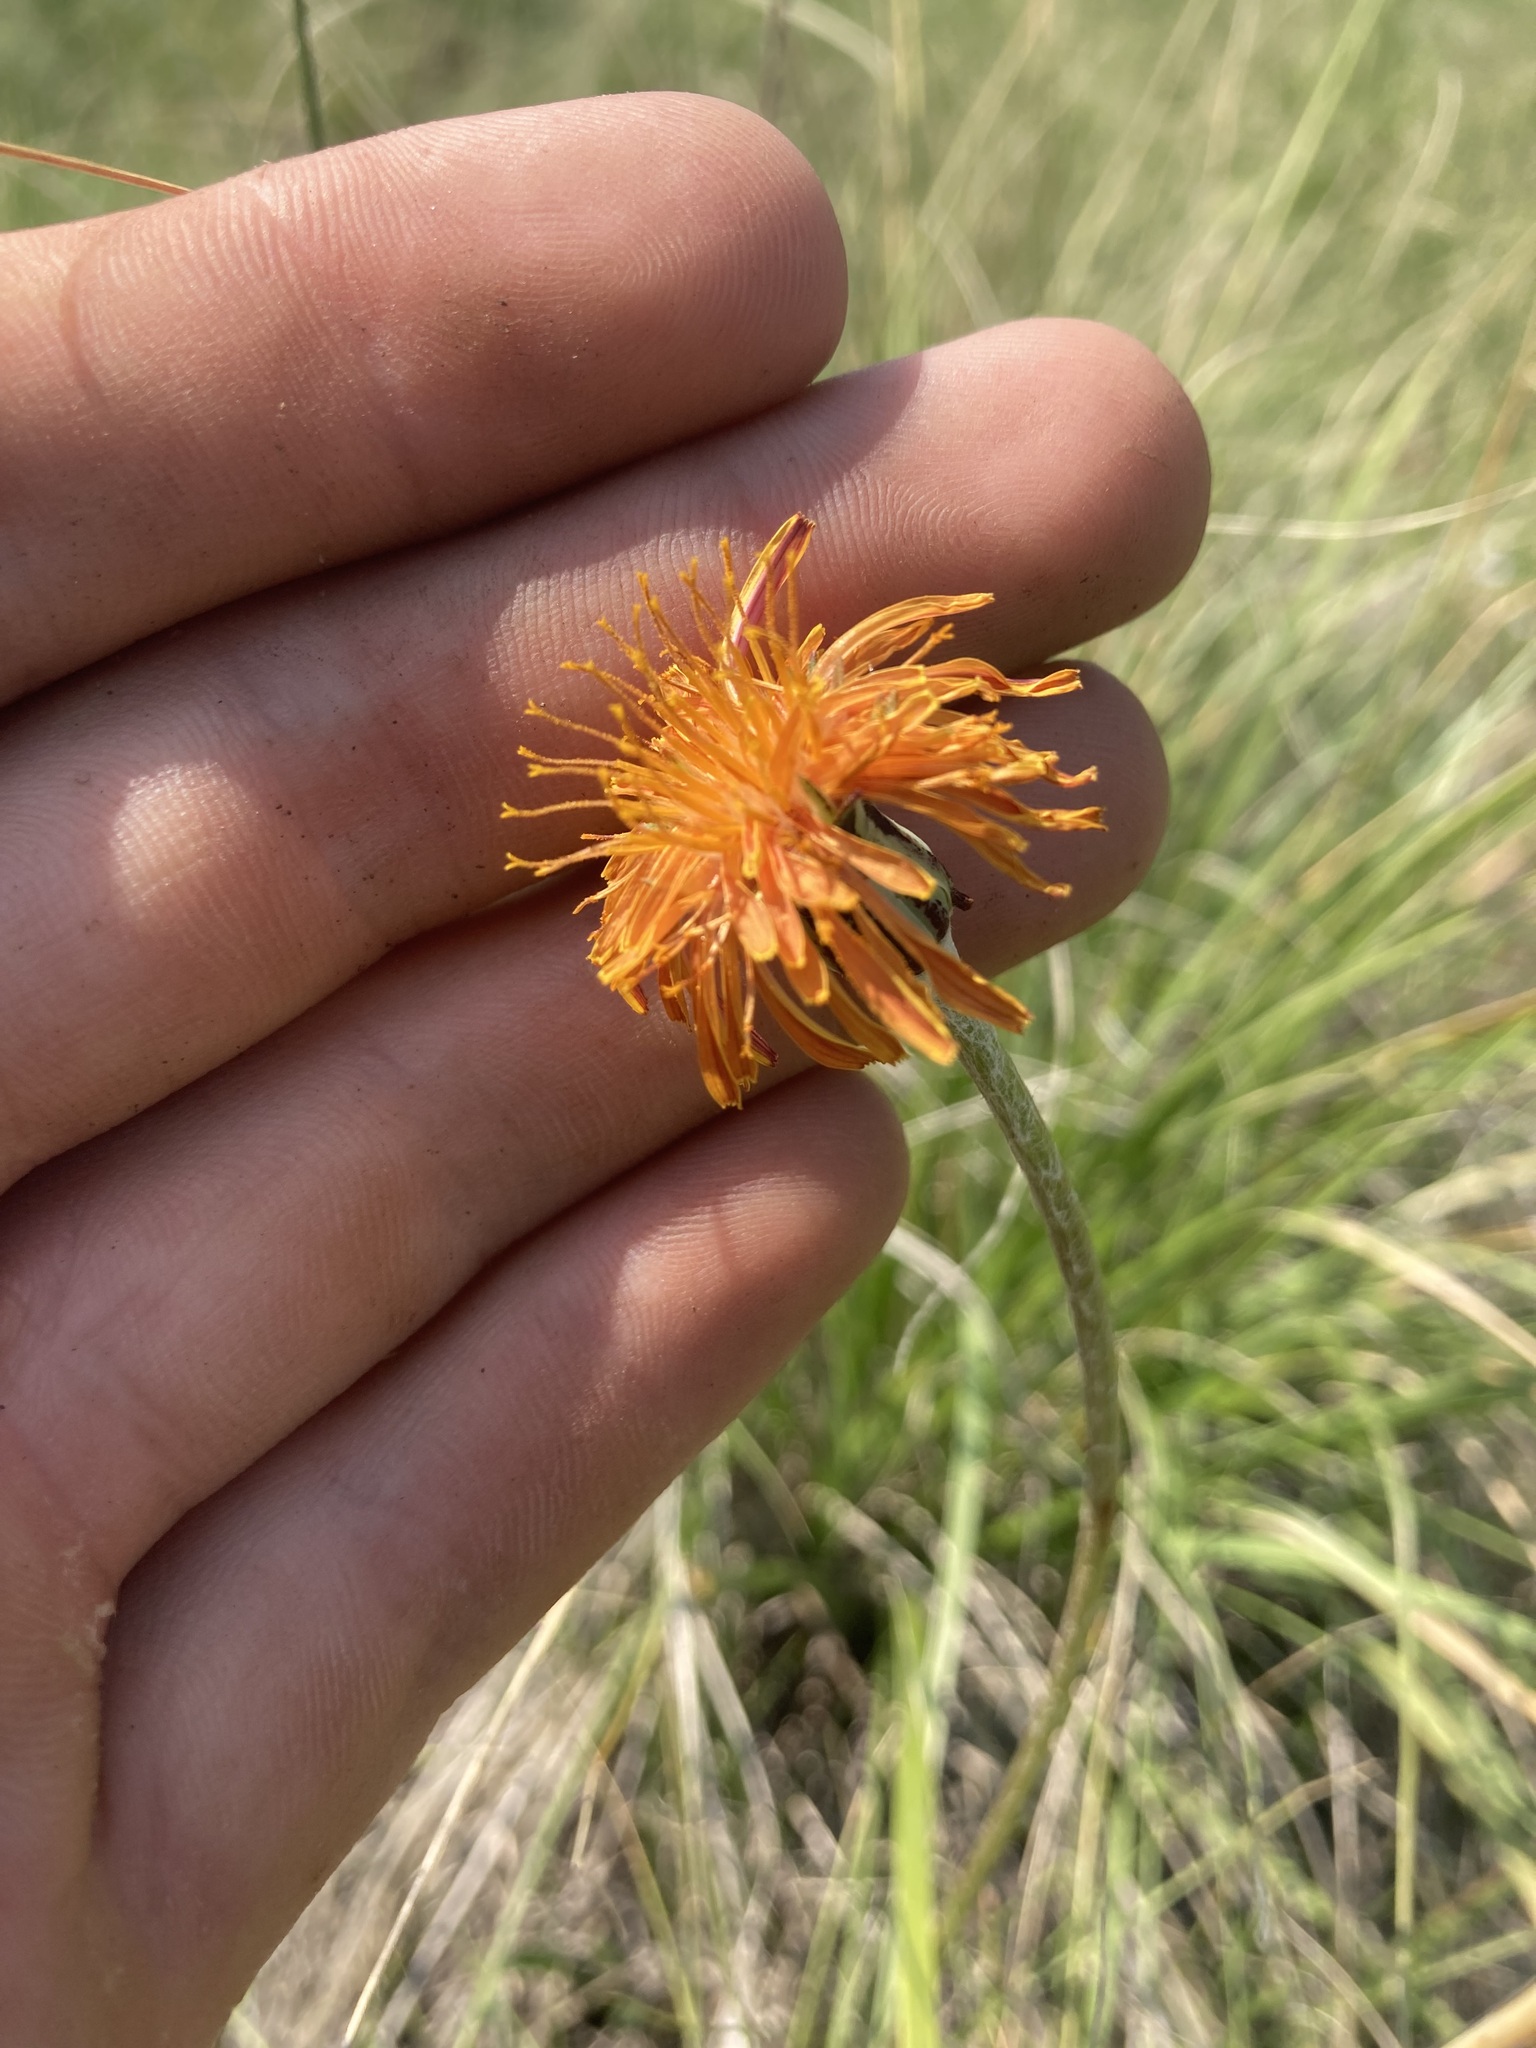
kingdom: Plantae
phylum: Tracheophyta
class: Magnoliopsida
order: Asterales
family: Asteraceae
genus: Agoseris
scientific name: Agoseris aurantiaca
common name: Mountain agoseris
